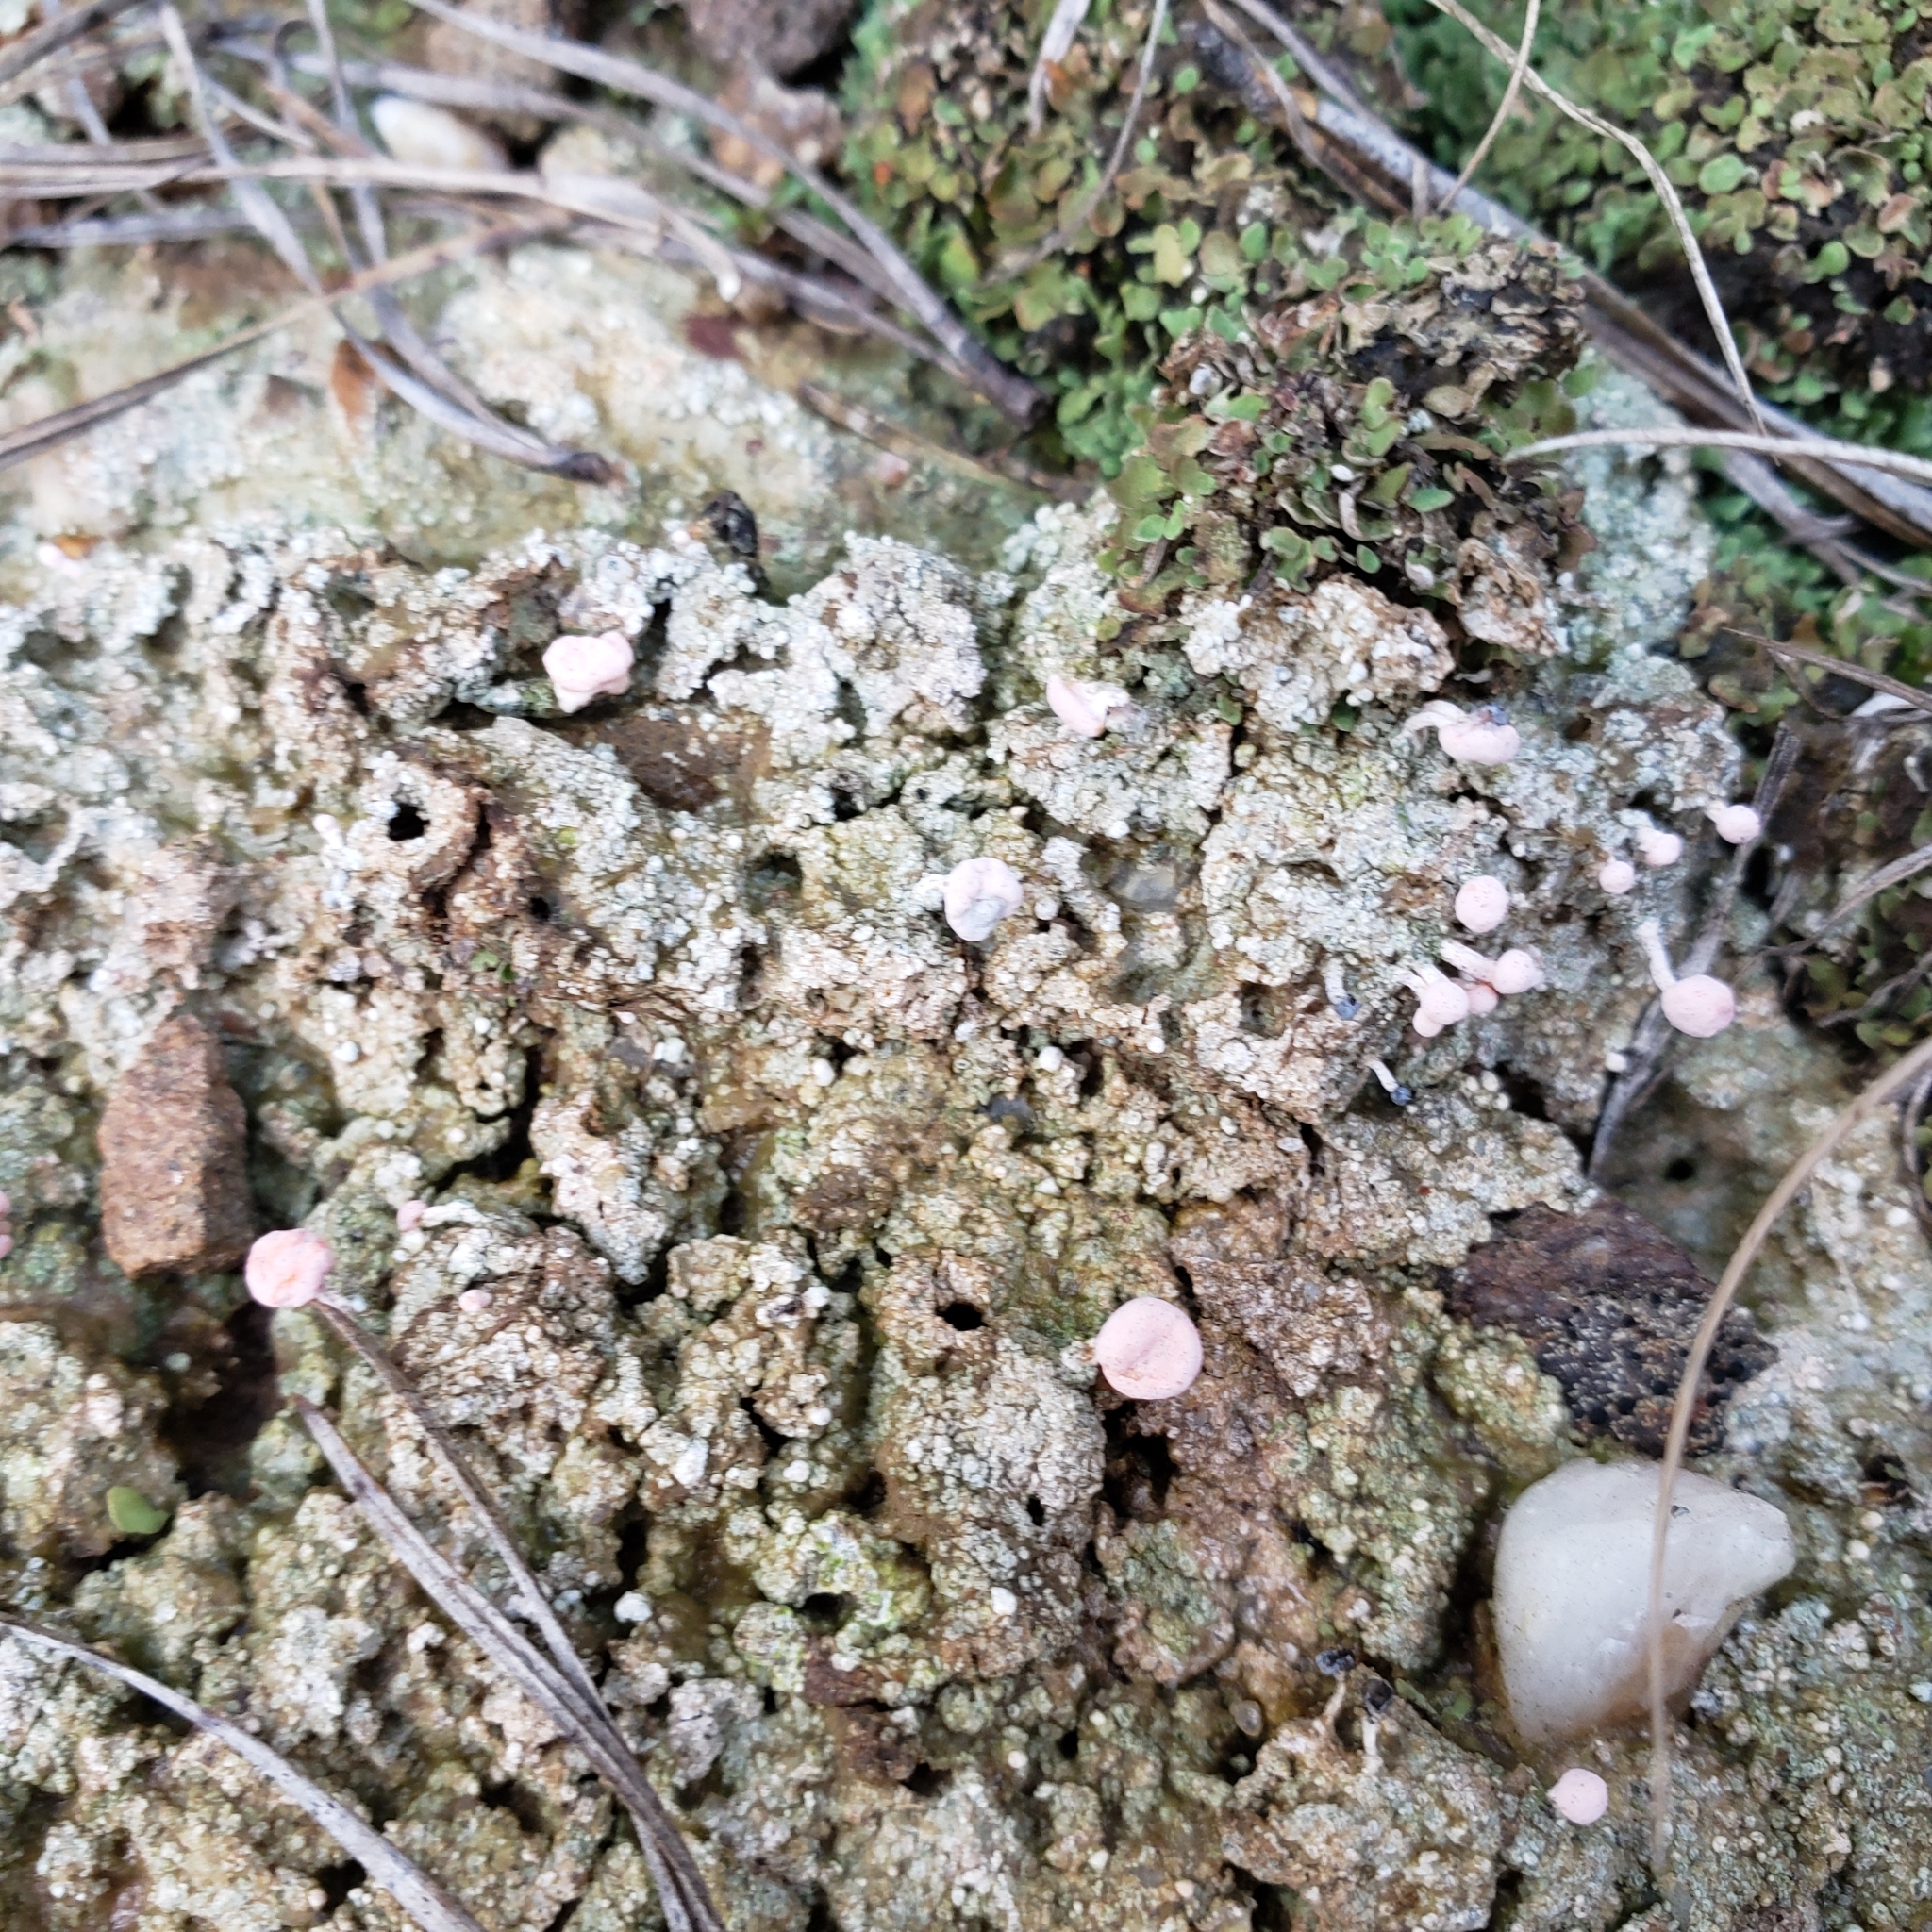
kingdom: Fungi
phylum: Ascomycota
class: Lecanoromycetes
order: Pertusariales
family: Icmadophilaceae
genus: Dibaeis
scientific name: Dibaeis baeomyces
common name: Pink earth lichen
